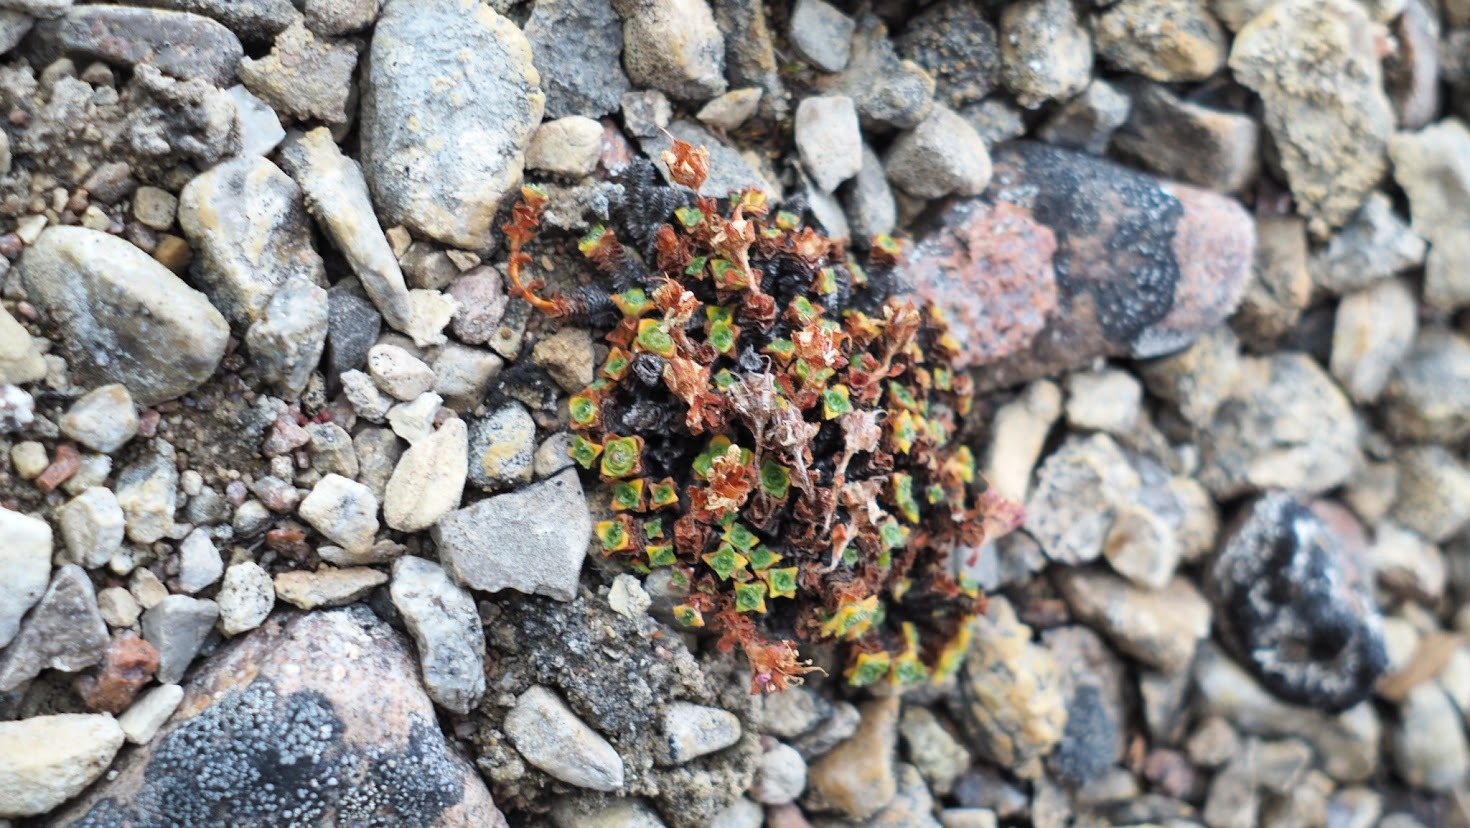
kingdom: Plantae
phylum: Tracheophyta
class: Magnoliopsida
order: Saxifragales
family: Saxifragaceae
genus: Saxifraga
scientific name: Saxifraga oppositifolia
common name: Purple saxifrage
